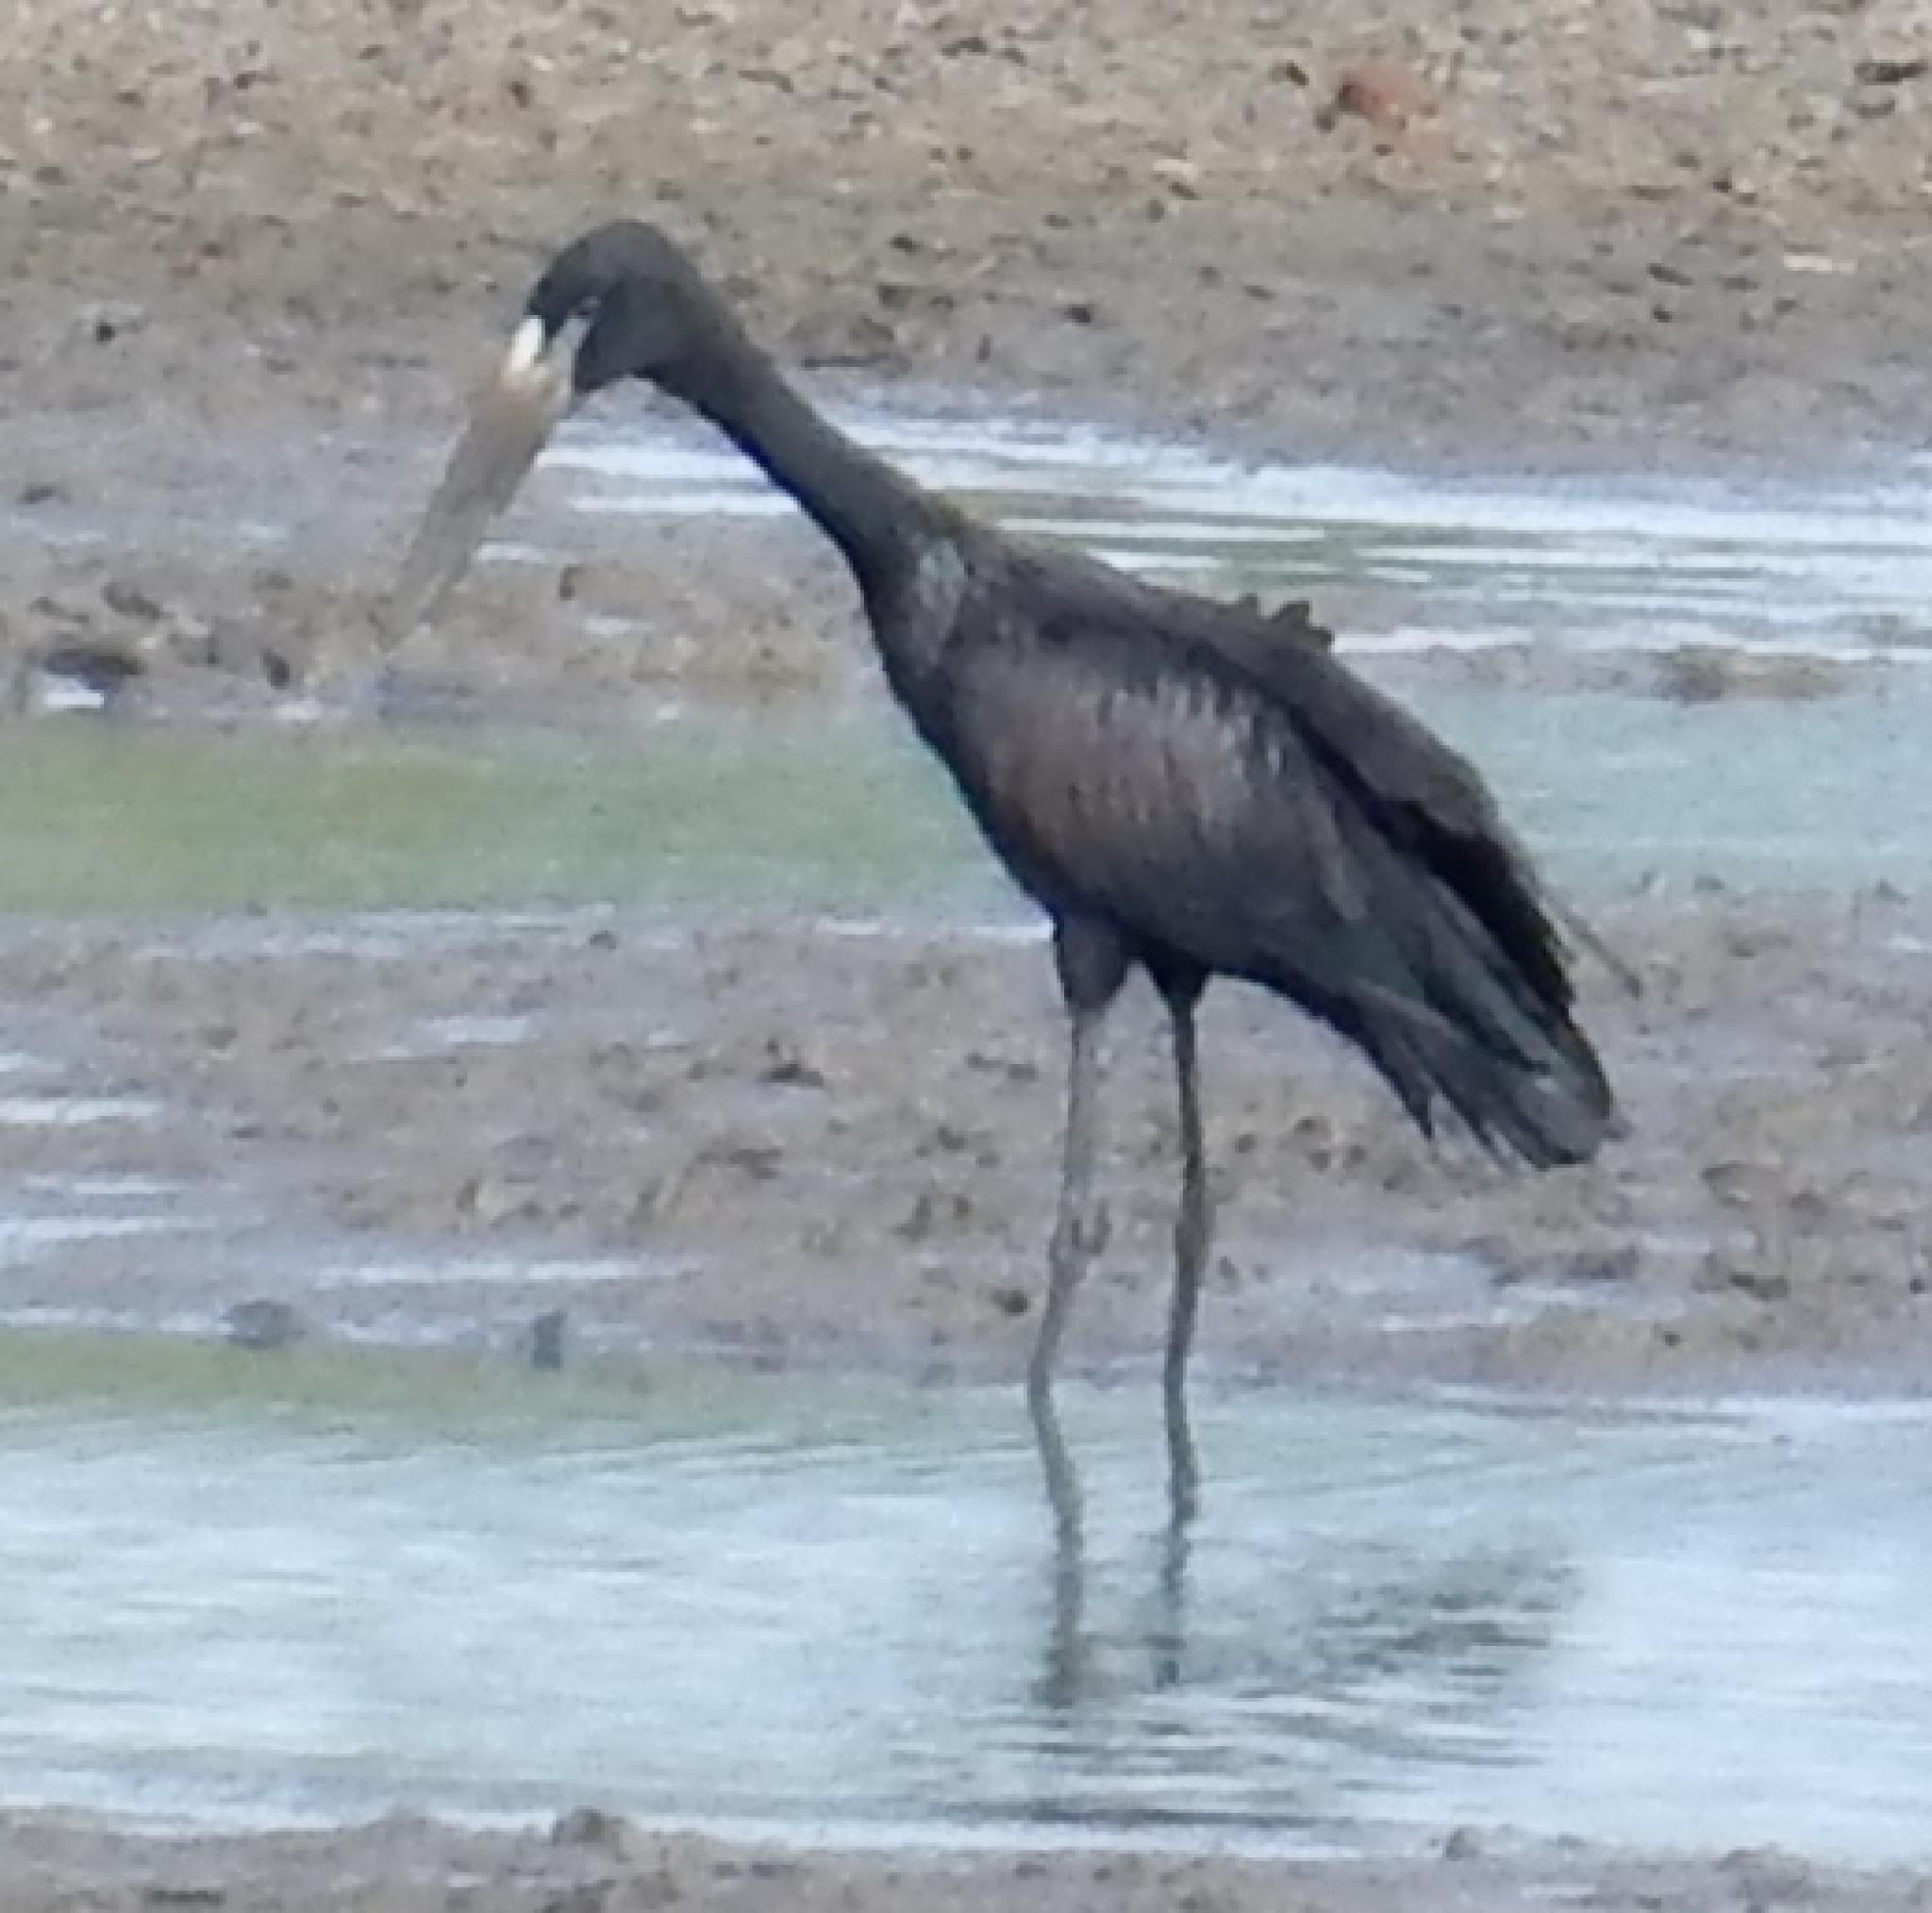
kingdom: Animalia
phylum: Chordata
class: Aves
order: Ciconiiformes
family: Ciconiidae
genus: Anastomus
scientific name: Anastomus lamelligerus
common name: African openbill
